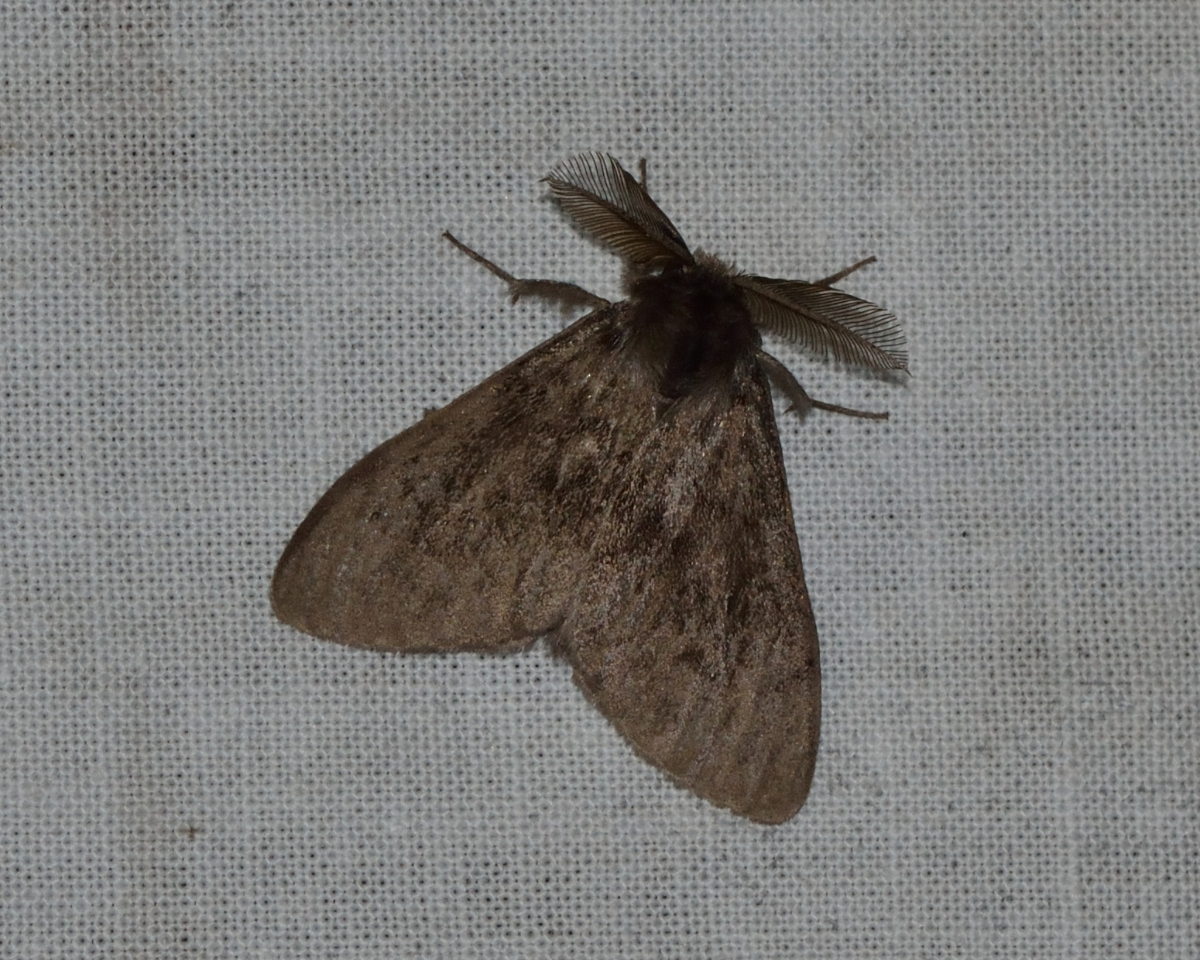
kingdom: Animalia
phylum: Arthropoda
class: Insecta
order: Lepidoptera
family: Erebidae
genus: Lymantria
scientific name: Lymantria monacha
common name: Black arches
